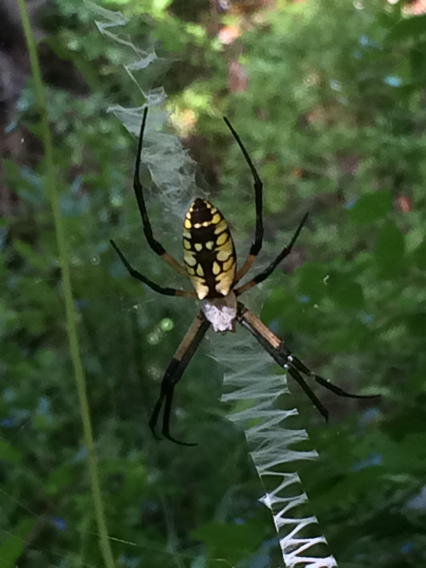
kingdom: Animalia
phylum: Arthropoda
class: Arachnida
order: Araneae
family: Araneidae
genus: Argiope
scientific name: Argiope aurantia
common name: Orb weavers
